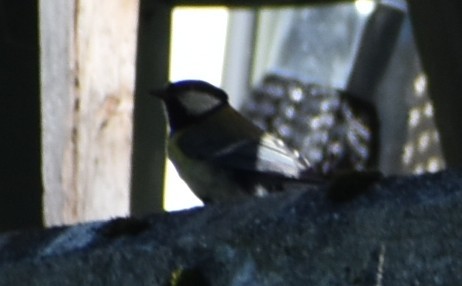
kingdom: Animalia
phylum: Chordata
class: Aves
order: Passeriformes
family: Paridae
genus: Parus
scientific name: Parus major
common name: Great tit
